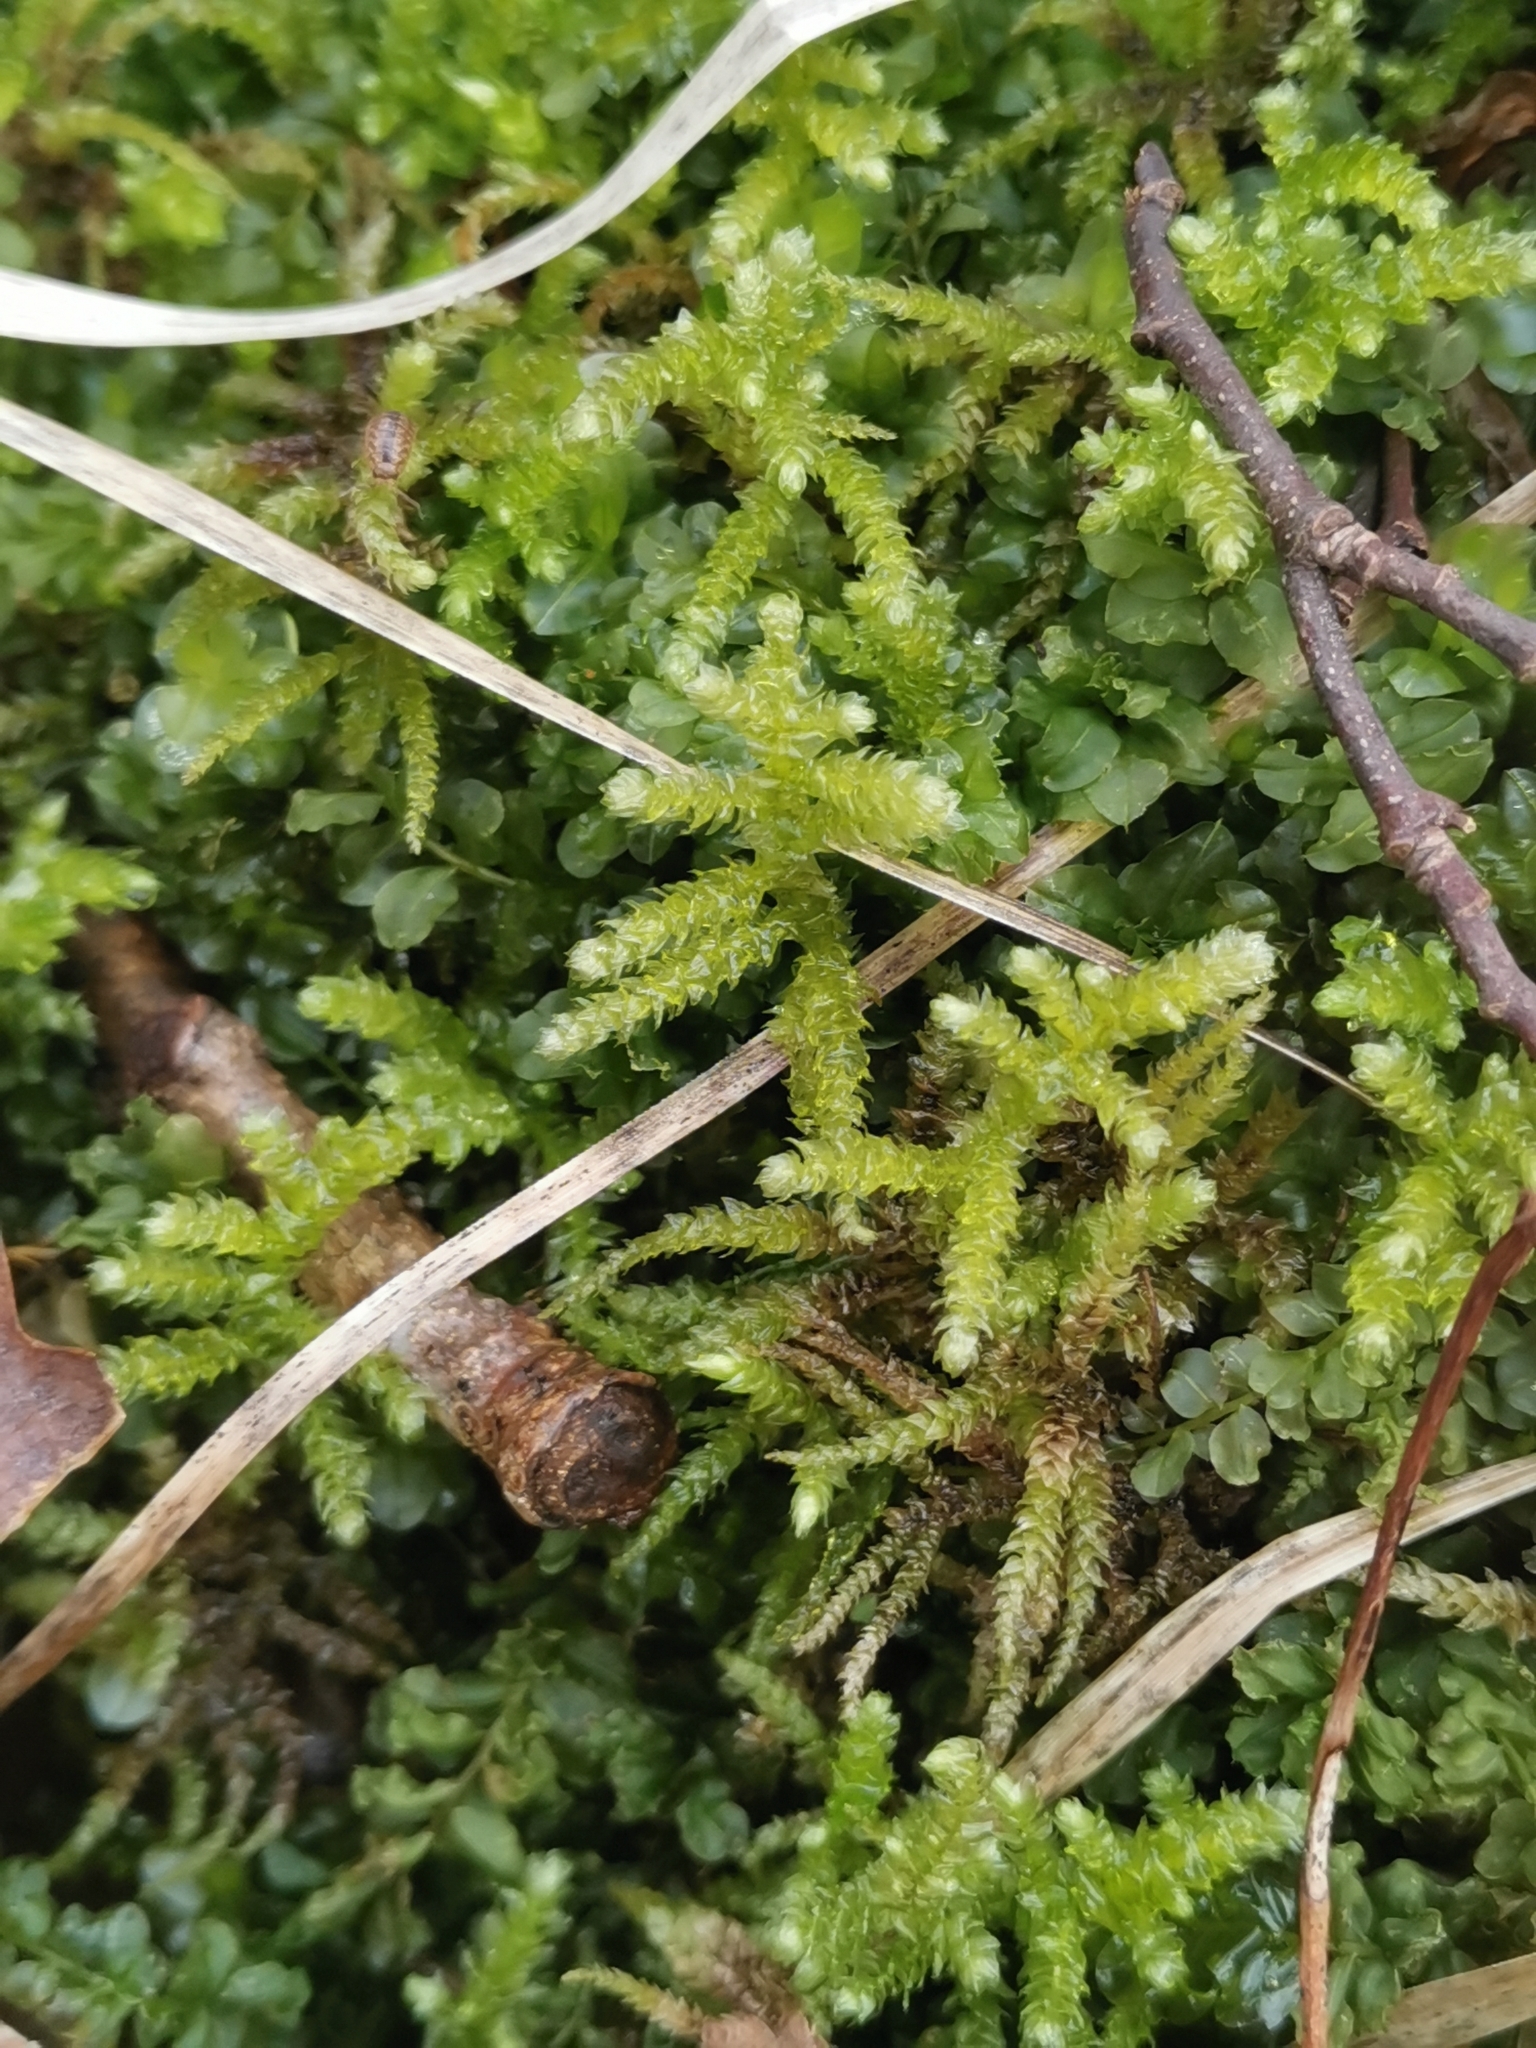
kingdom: Plantae
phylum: Bryophyta
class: Bryopsida
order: Hypnales
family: Brachytheciaceae
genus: Eurhynchium
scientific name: Eurhynchium angustirete
